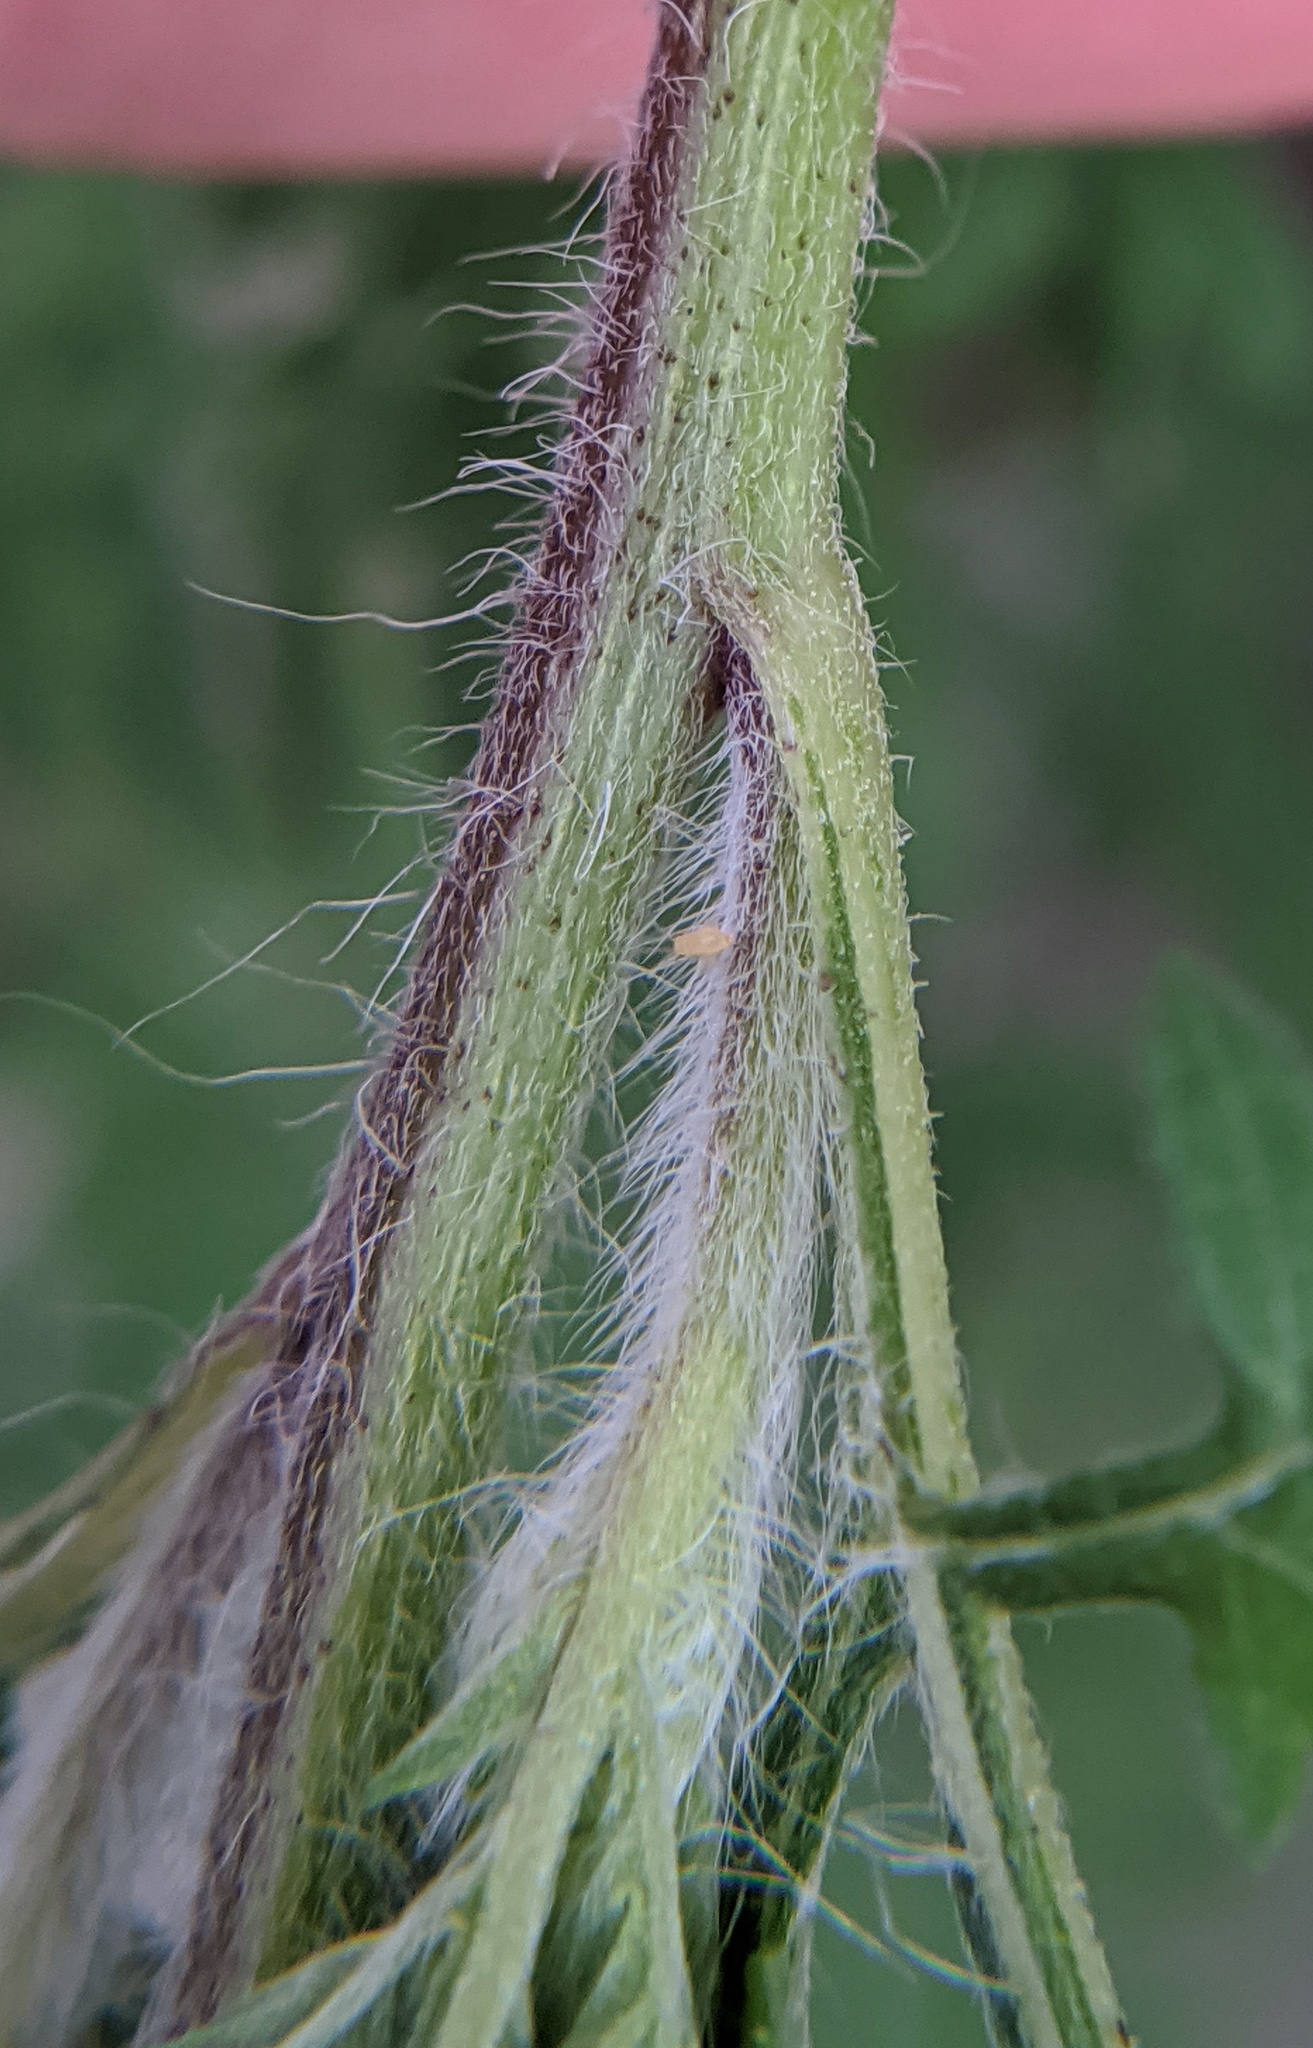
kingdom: Plantae
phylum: Tracheophyta
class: Magnoliopsida
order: Asterales
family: Asteraceae
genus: Ambrosia
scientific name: Ambrosia artemisiifolia
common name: Annual ragweed
